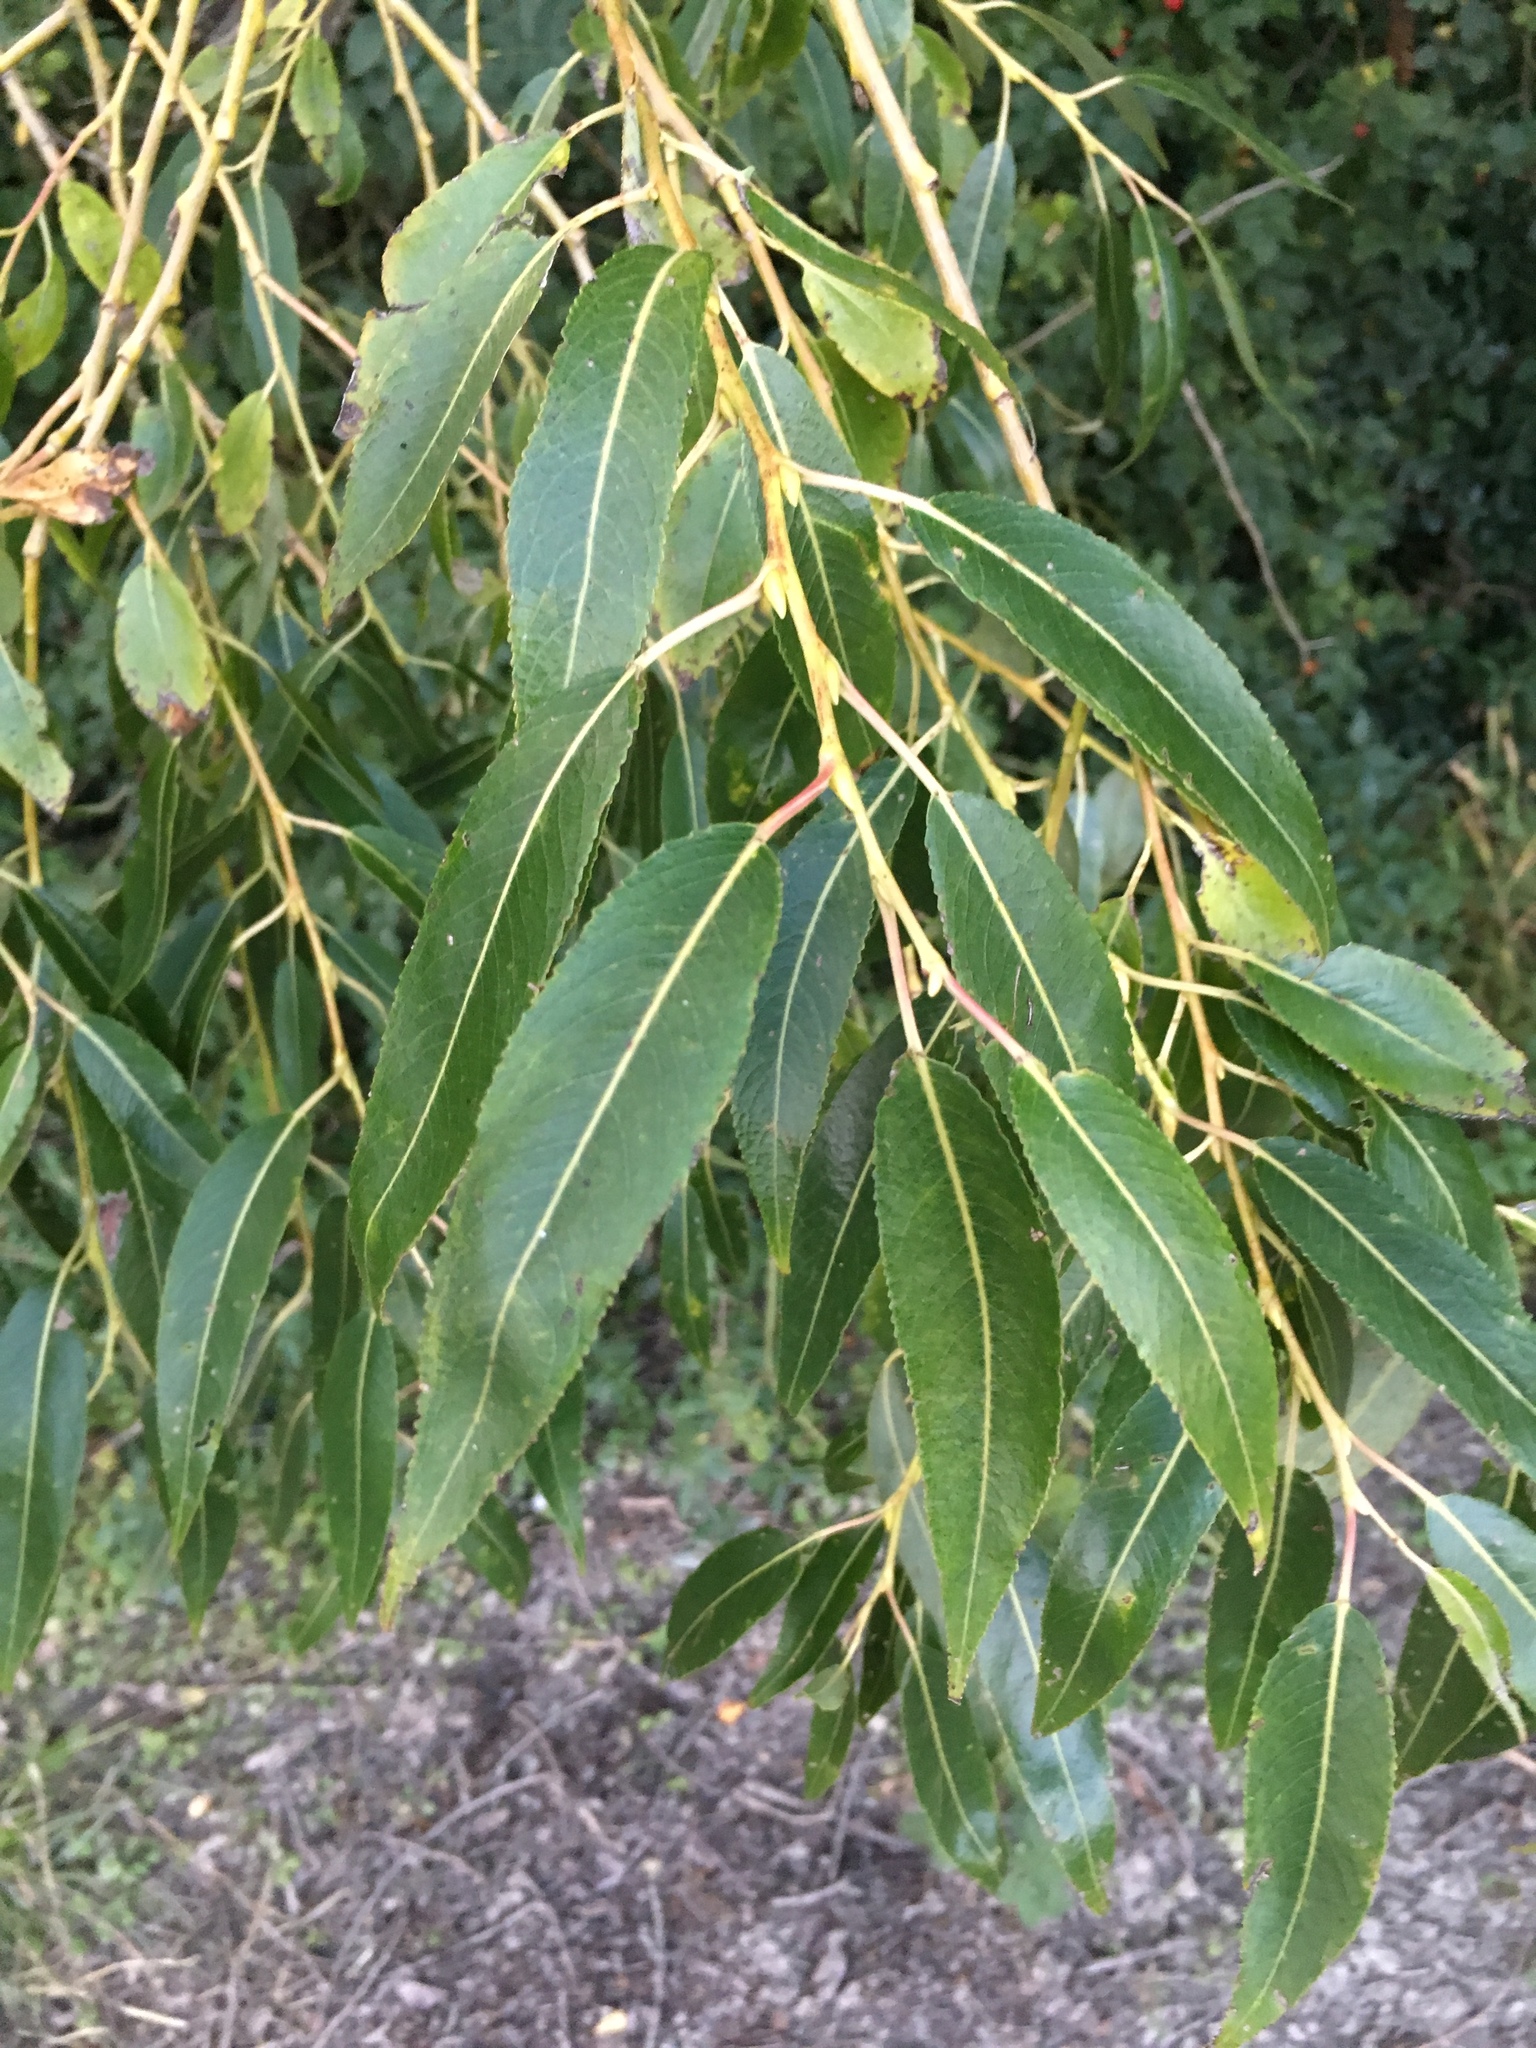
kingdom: Plantae
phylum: Tracheophyta
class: Magnoliopsida
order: Malpighiales
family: Salicaceae
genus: Salix
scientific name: Salix fragilis
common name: Crack willow
